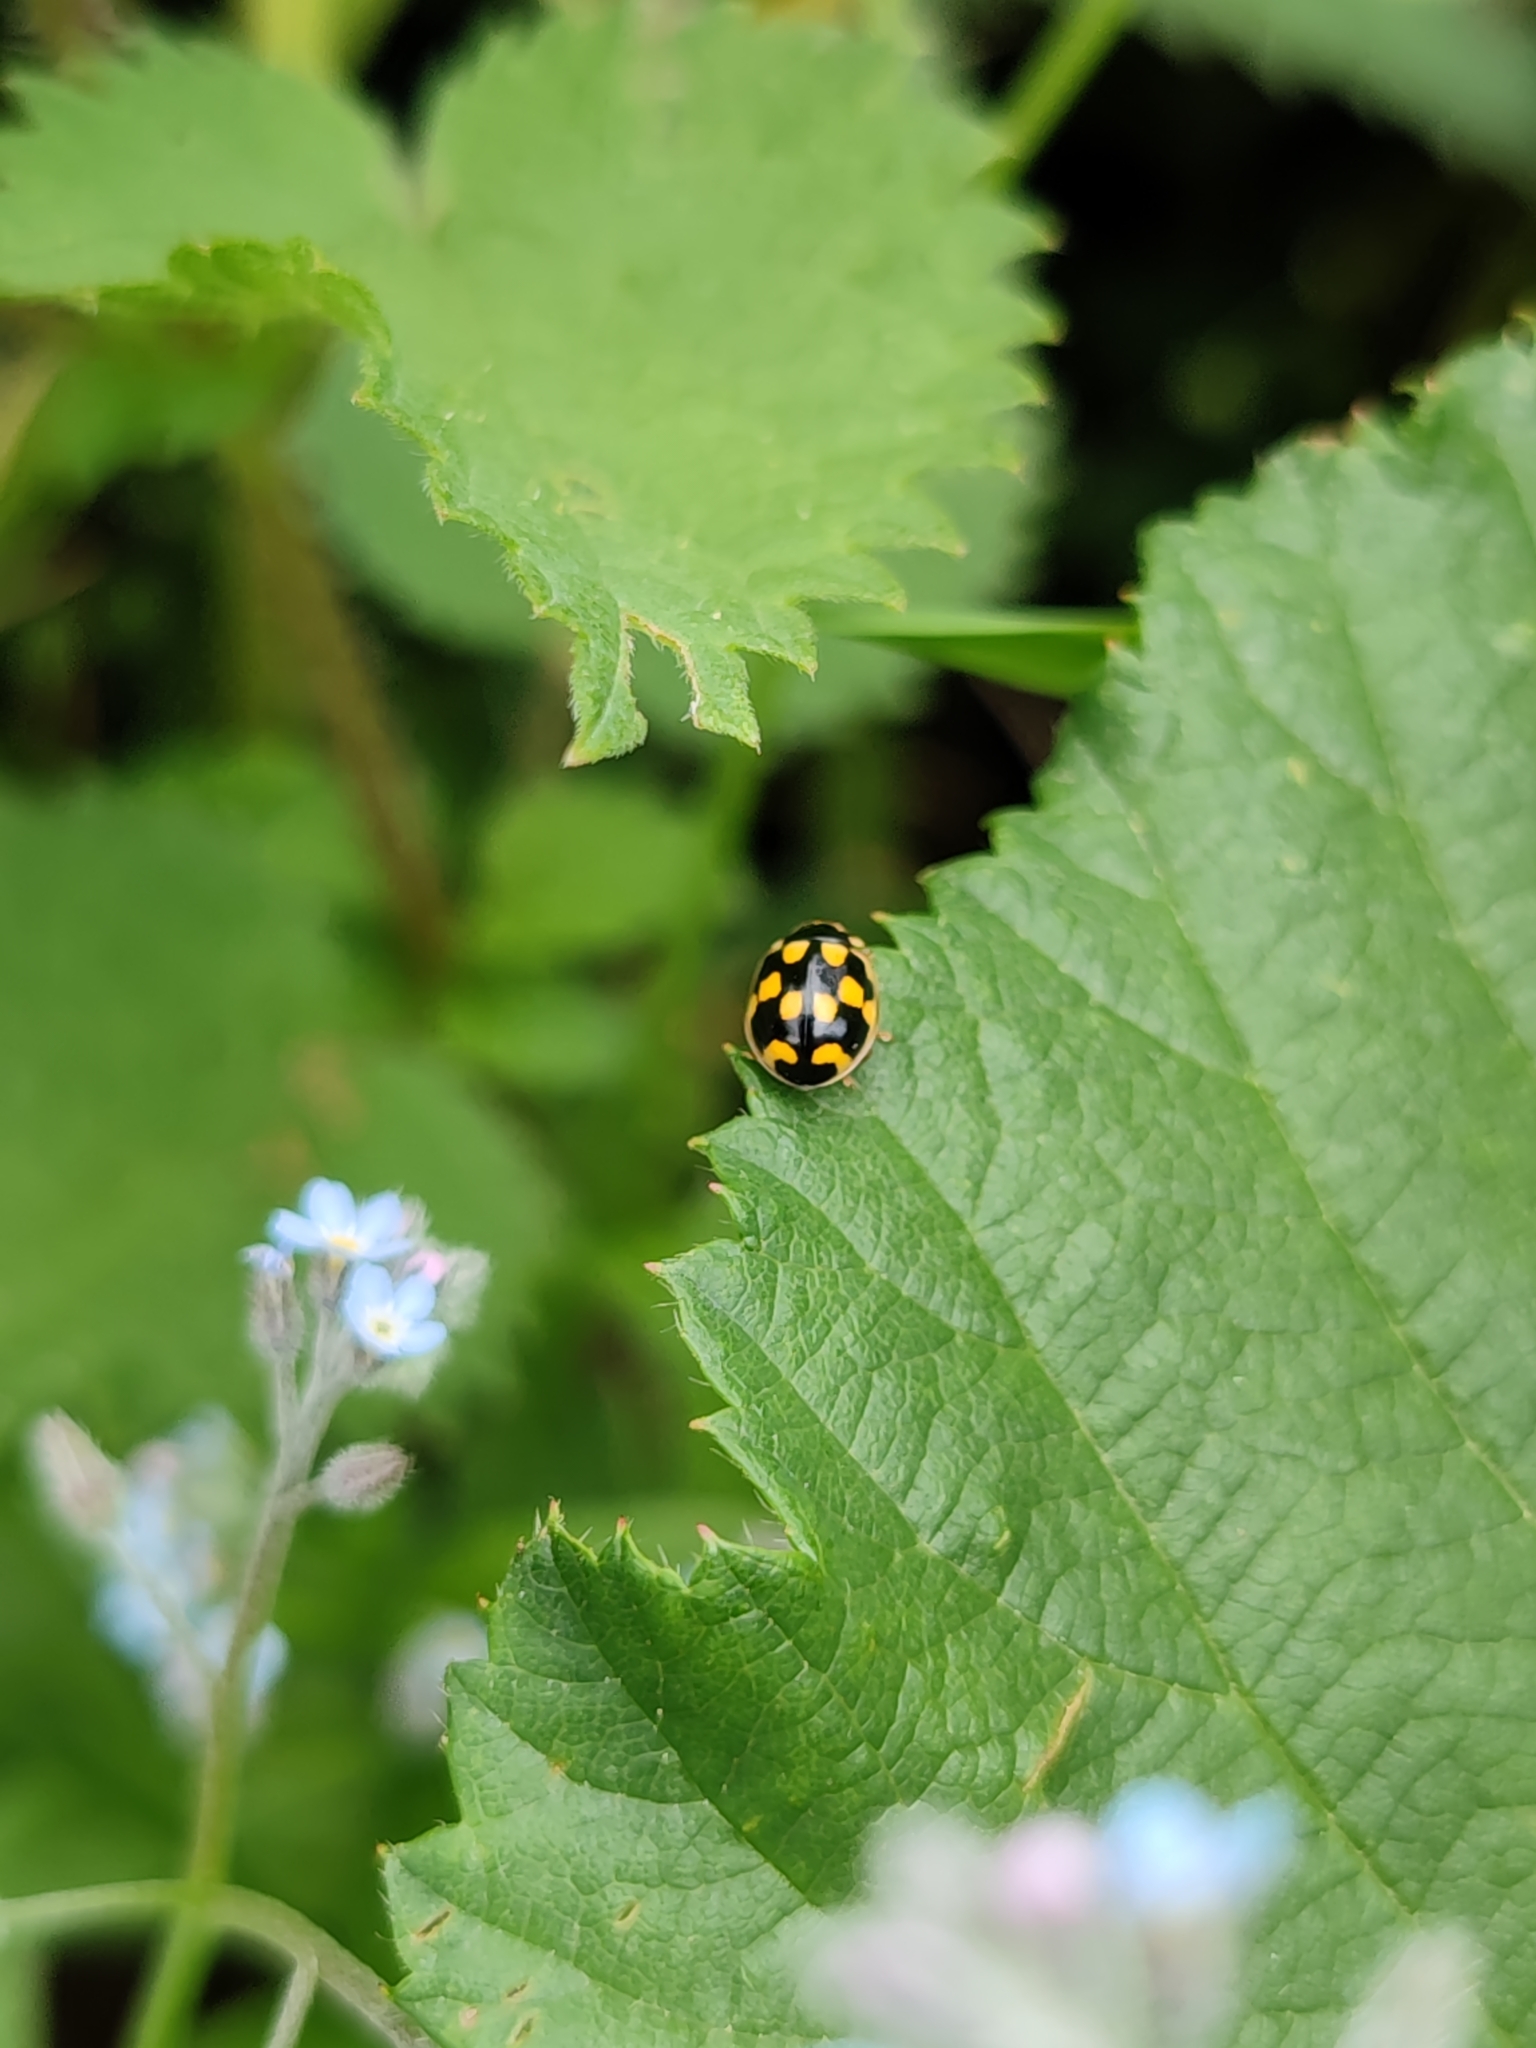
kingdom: Animalia
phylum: Arthropoda
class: Insecta
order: Coleoptera
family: Coccinellidae
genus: Propylaea
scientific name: Propylaea quatuordecimpunctata
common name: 14-spotted ladybird beetle
